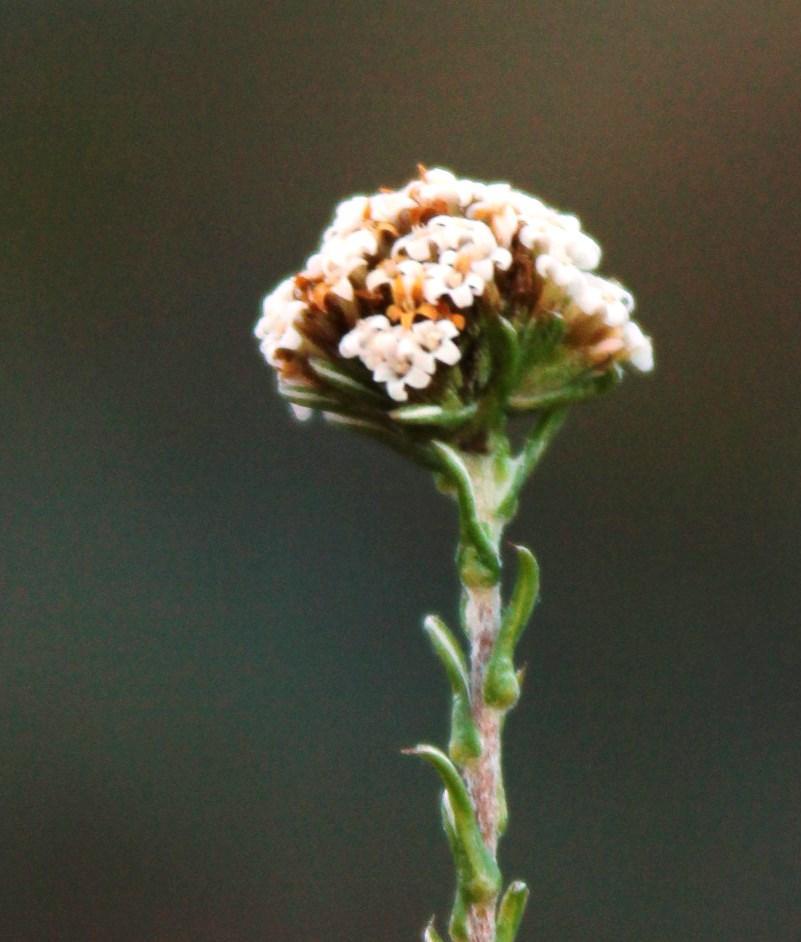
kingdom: Plantae
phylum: Tracheophyta
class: Magnoliopsida
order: Asterales
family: Asteraceae
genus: Stoebe
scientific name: Stoebe capitata
